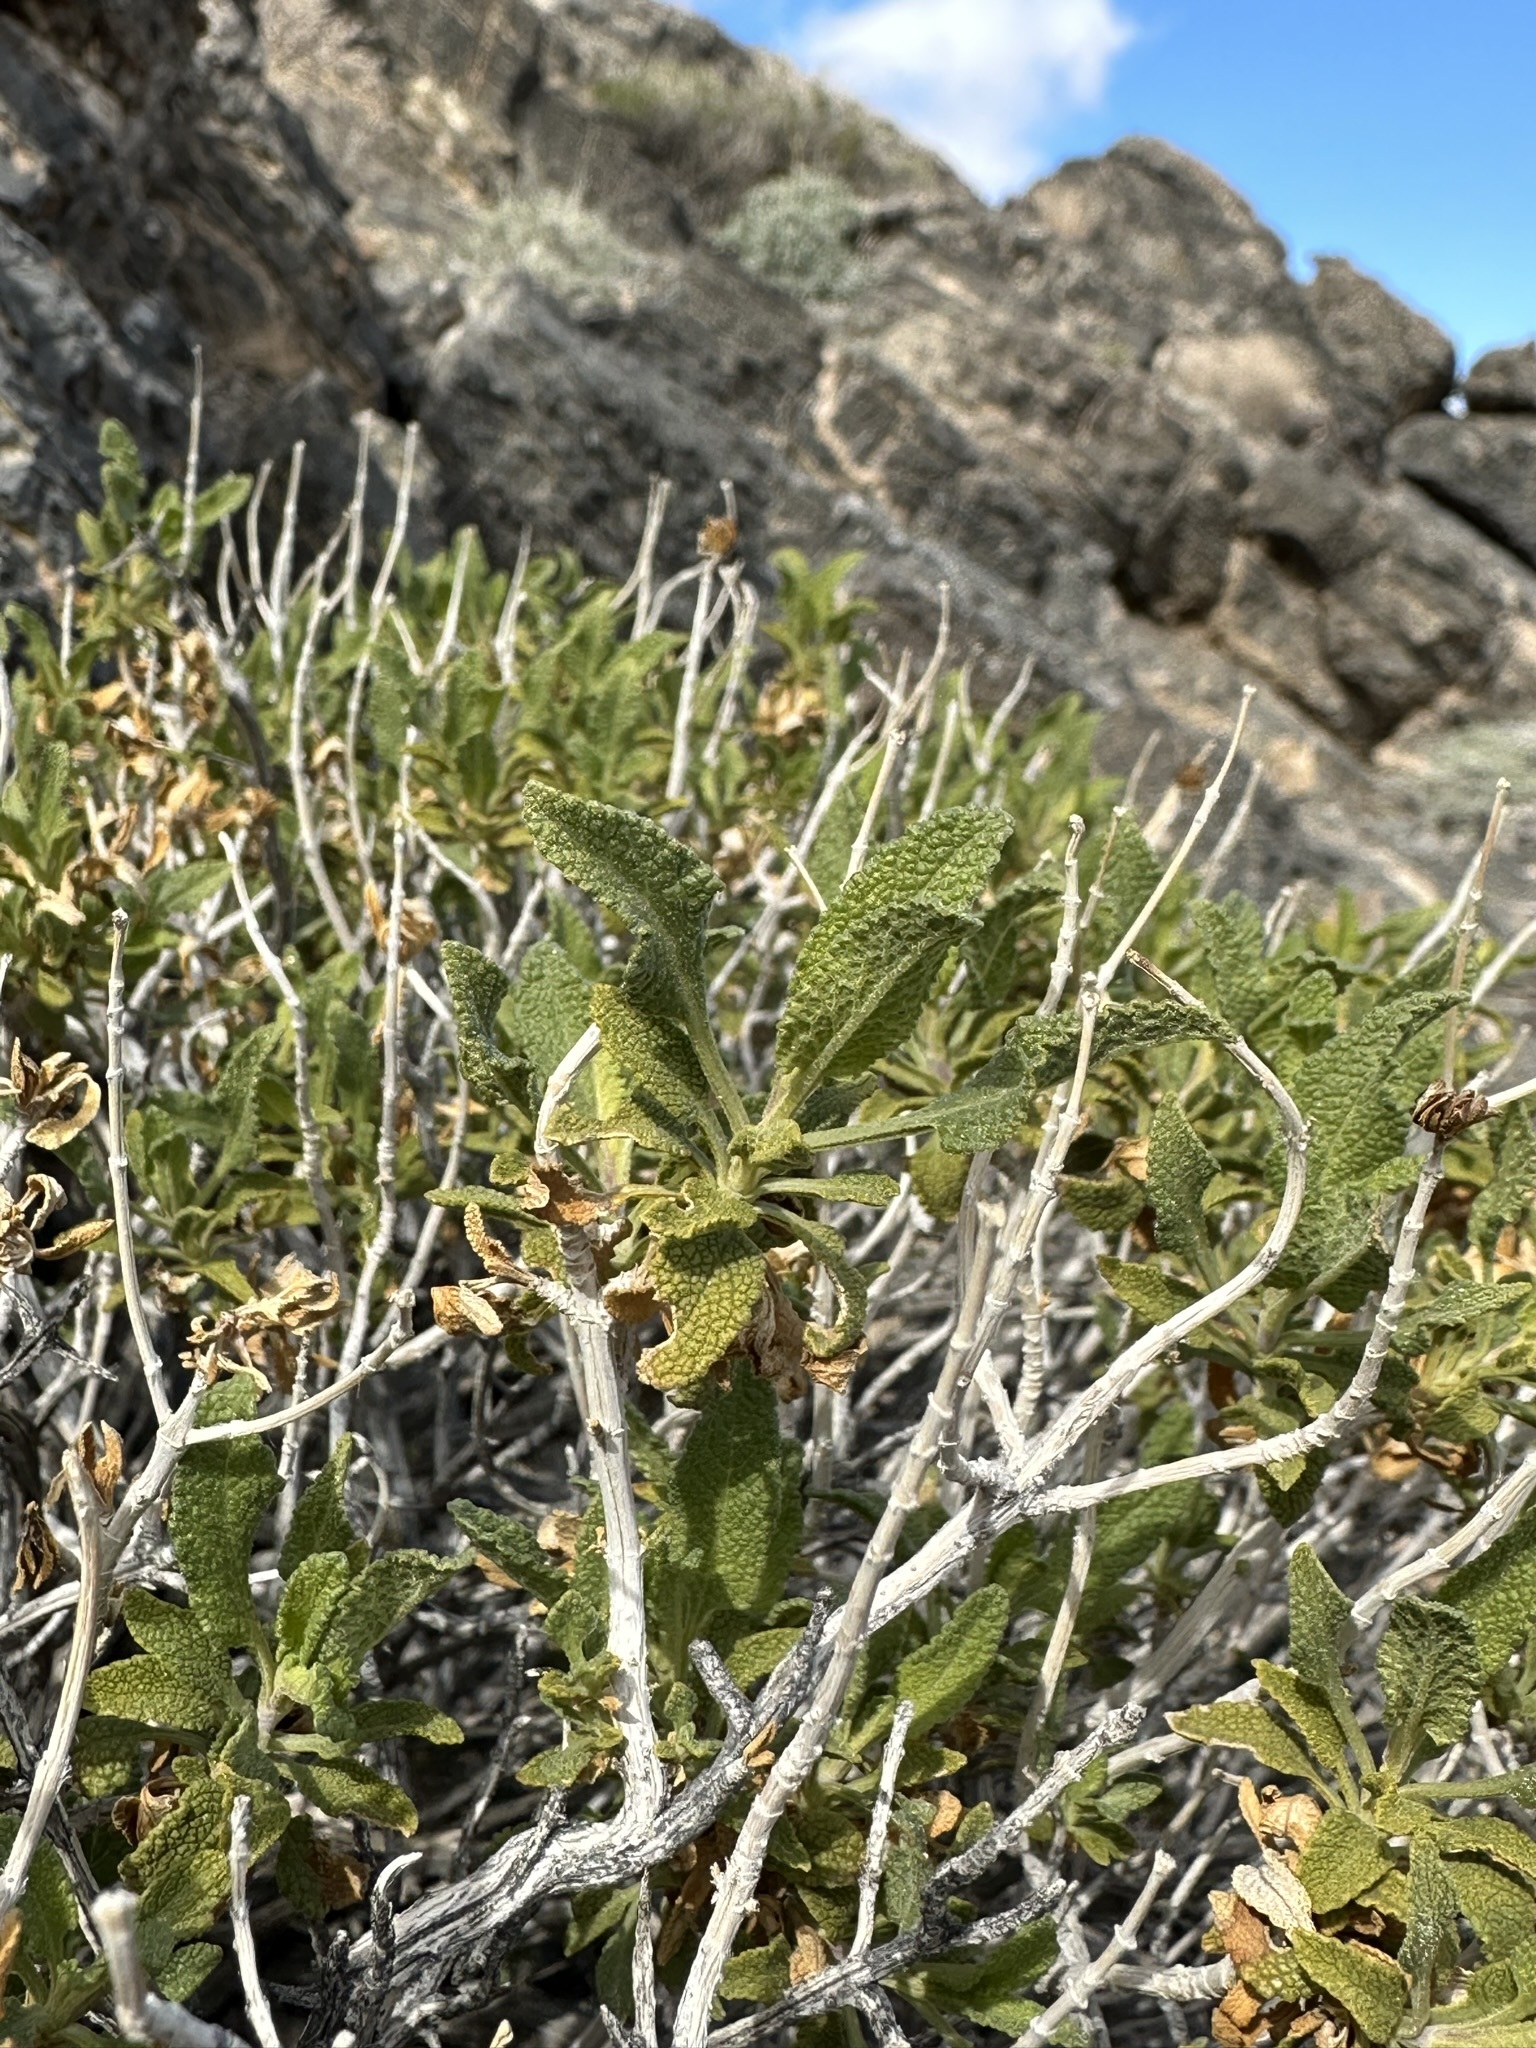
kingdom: Plantae
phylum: Tracheophyta
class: Magnoliopsida
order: Lamiales
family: Lamiaceae
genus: Salvia
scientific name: Salvia mohavensis
